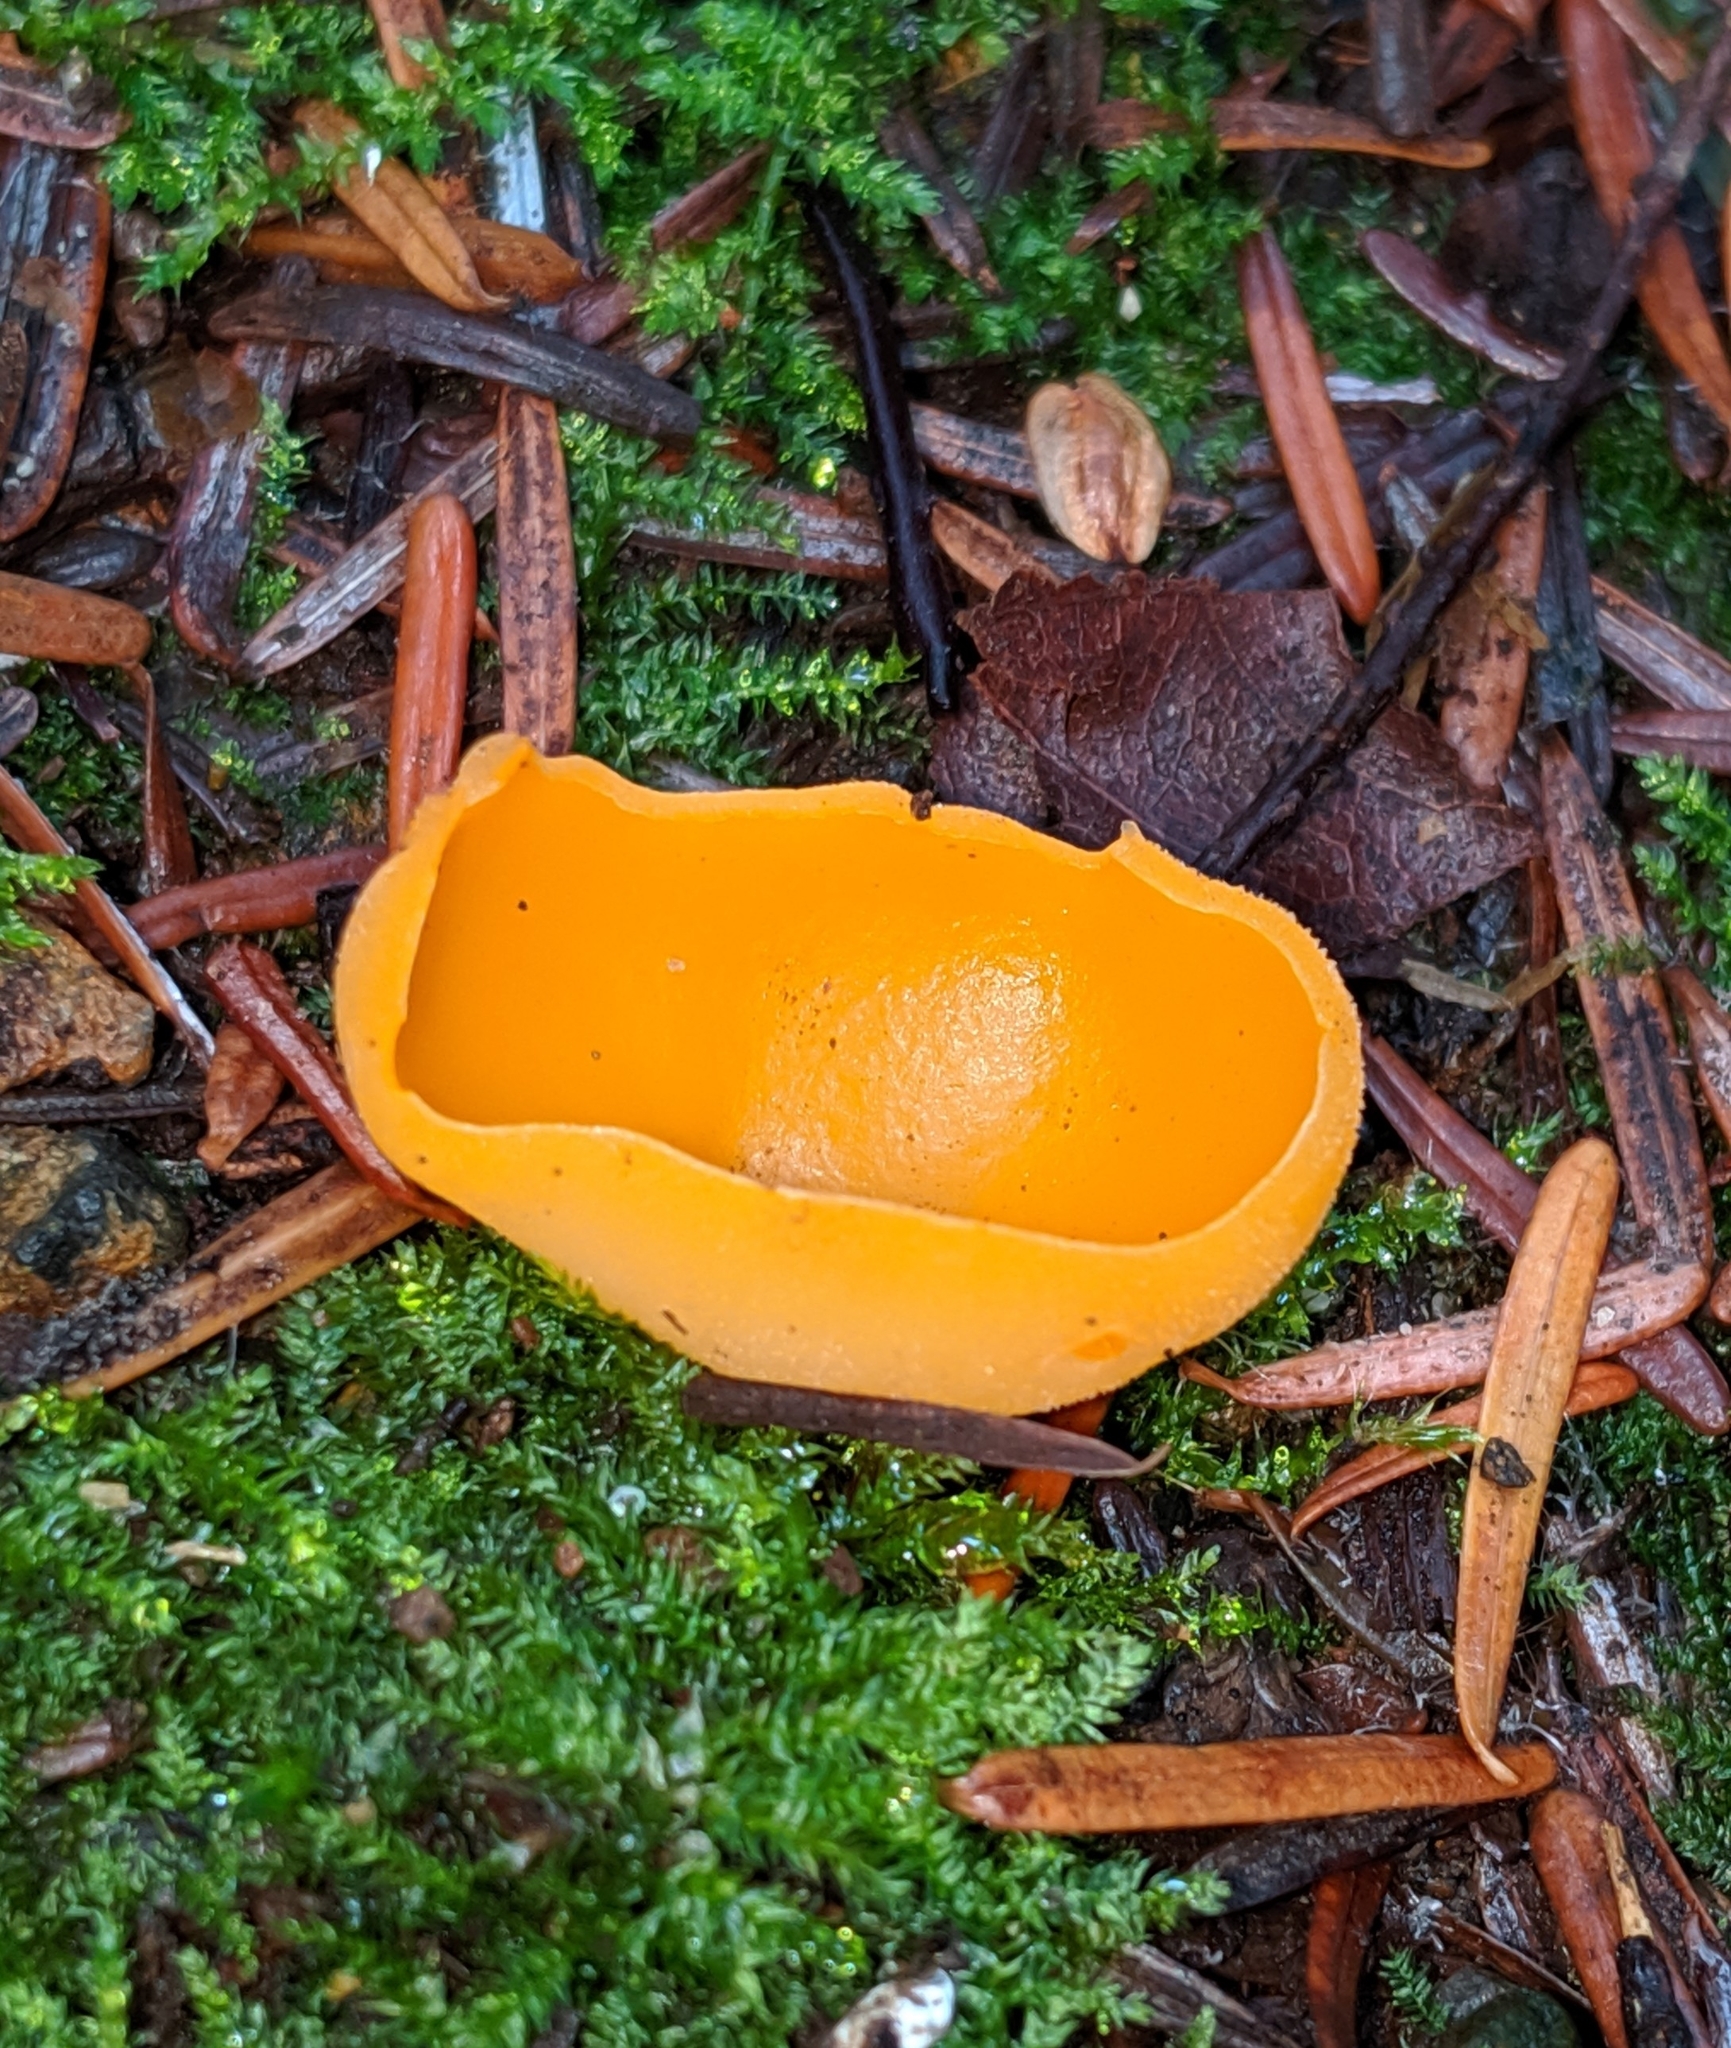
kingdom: Fungi
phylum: Ascomycota
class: Pezizomycetes
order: Pezizales
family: Pyronemataceae
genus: Aleuria
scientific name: Aleuria aurantia
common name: Orange peel fungus
